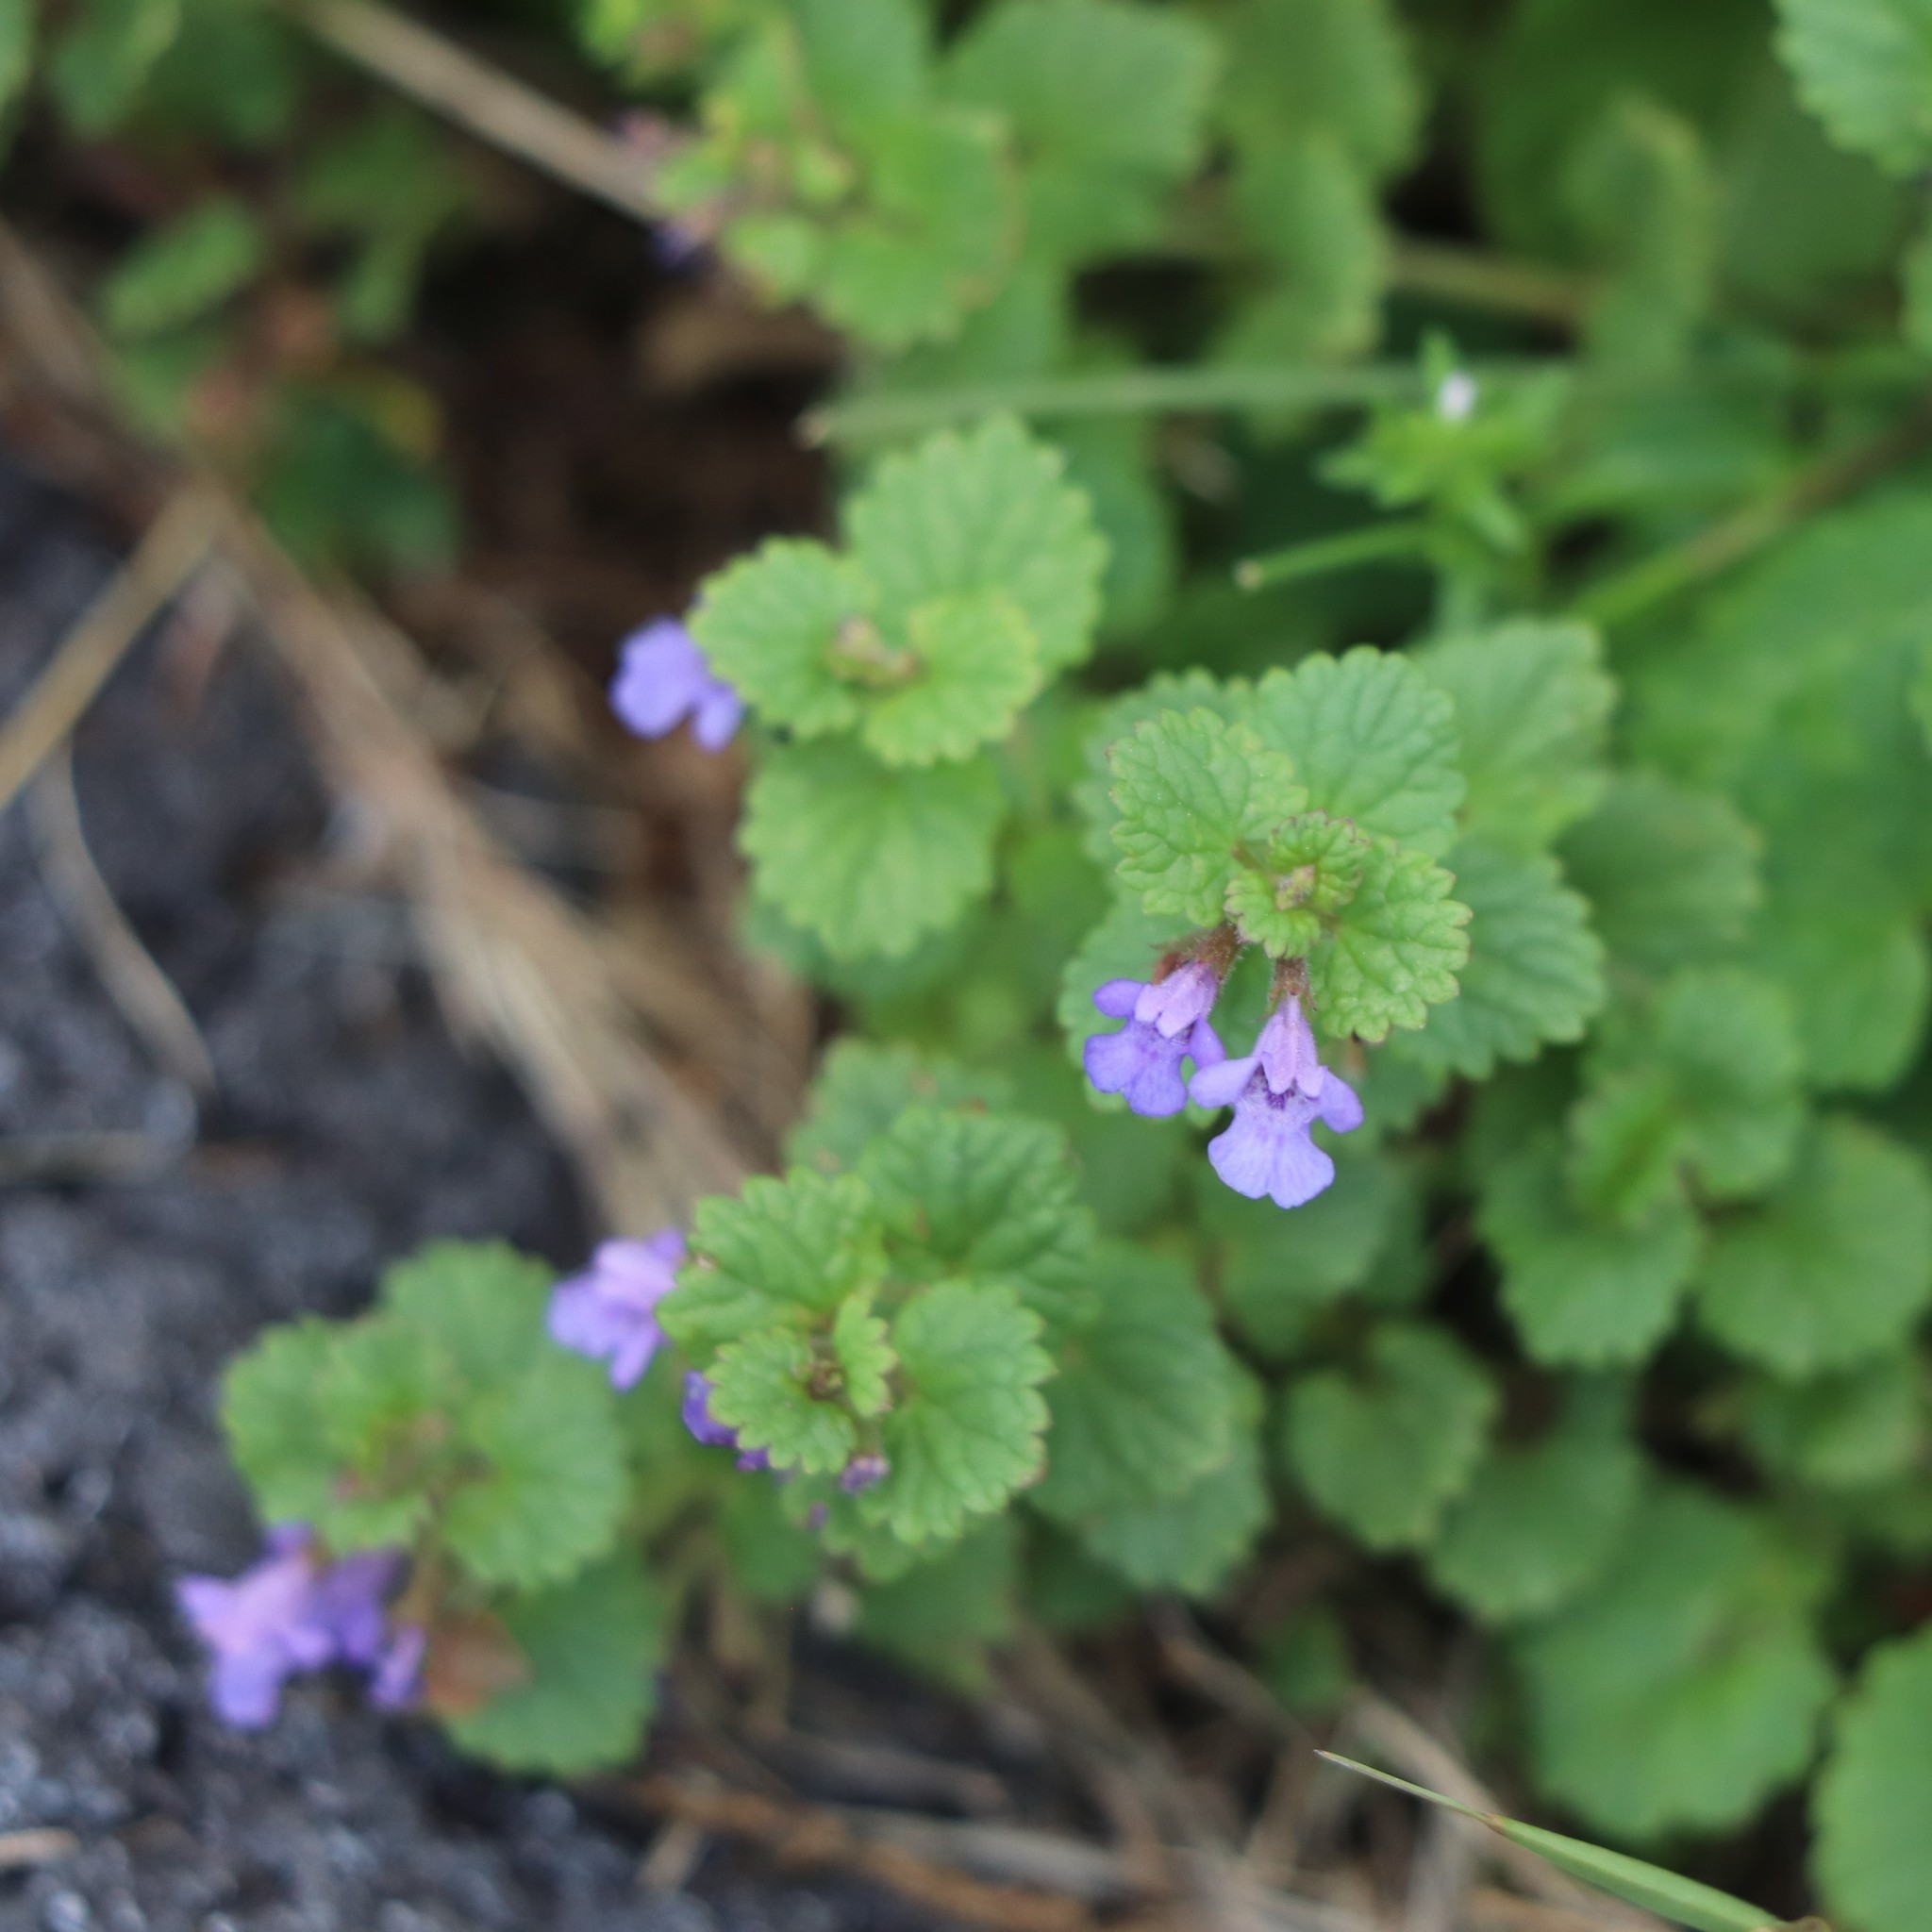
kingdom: Plantae
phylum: Tracheophyta
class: Magnoliopsida
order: Lamiales
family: Lamiaceae
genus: Glechoma
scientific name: Glechoma hederacea
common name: Ground ivy
